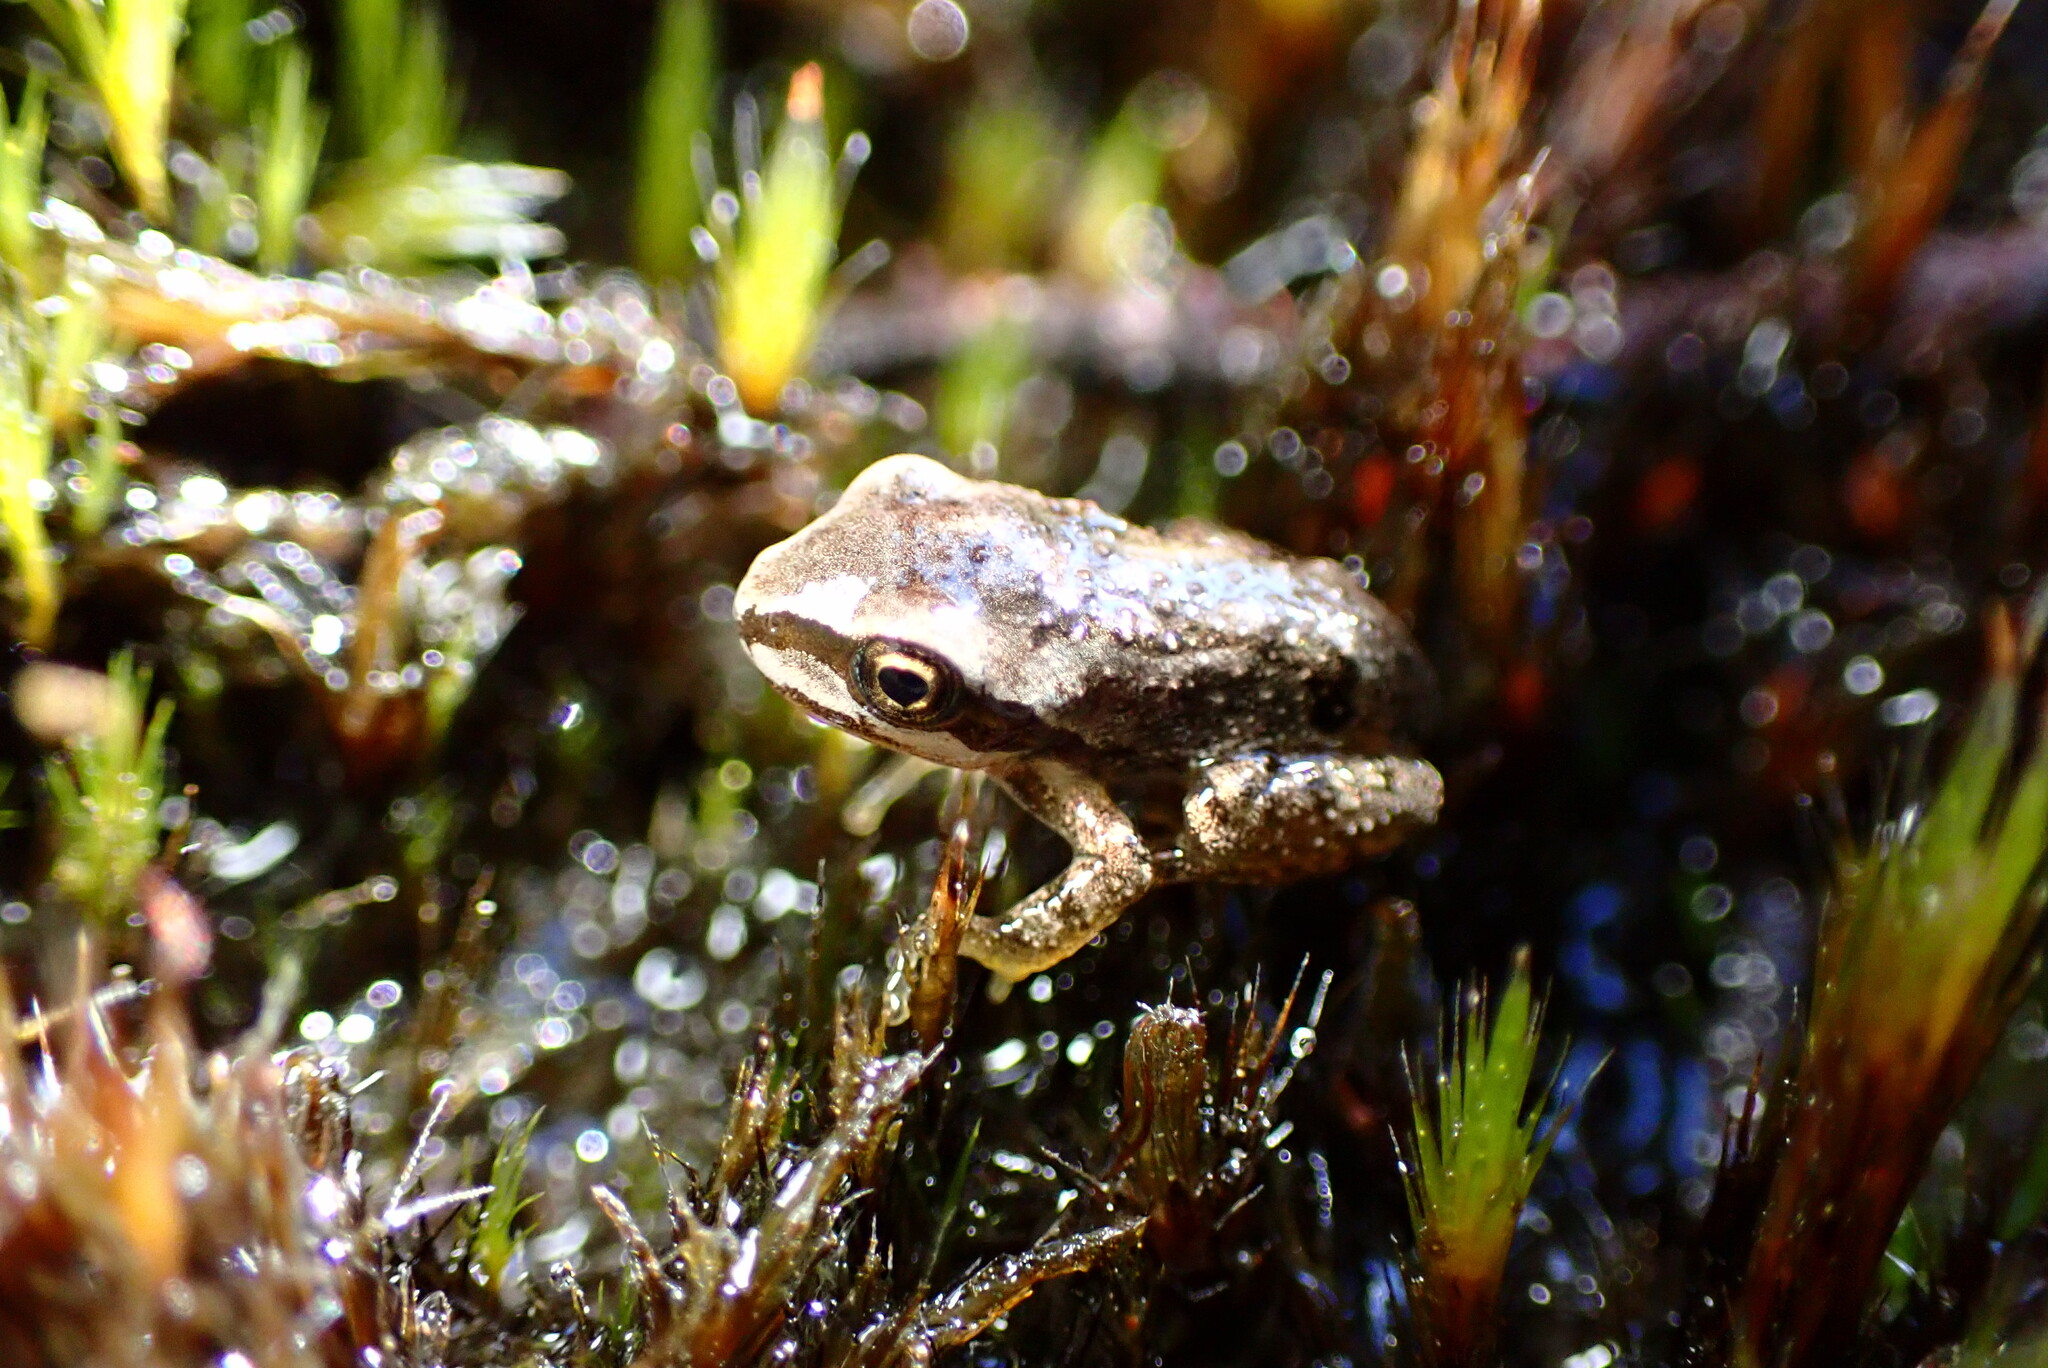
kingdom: Animalia
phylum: Chordata
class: Amphibia
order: Anura
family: Hylidae
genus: Pseudacris
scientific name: Pseudacris regilla
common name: Pacific chorus frog
